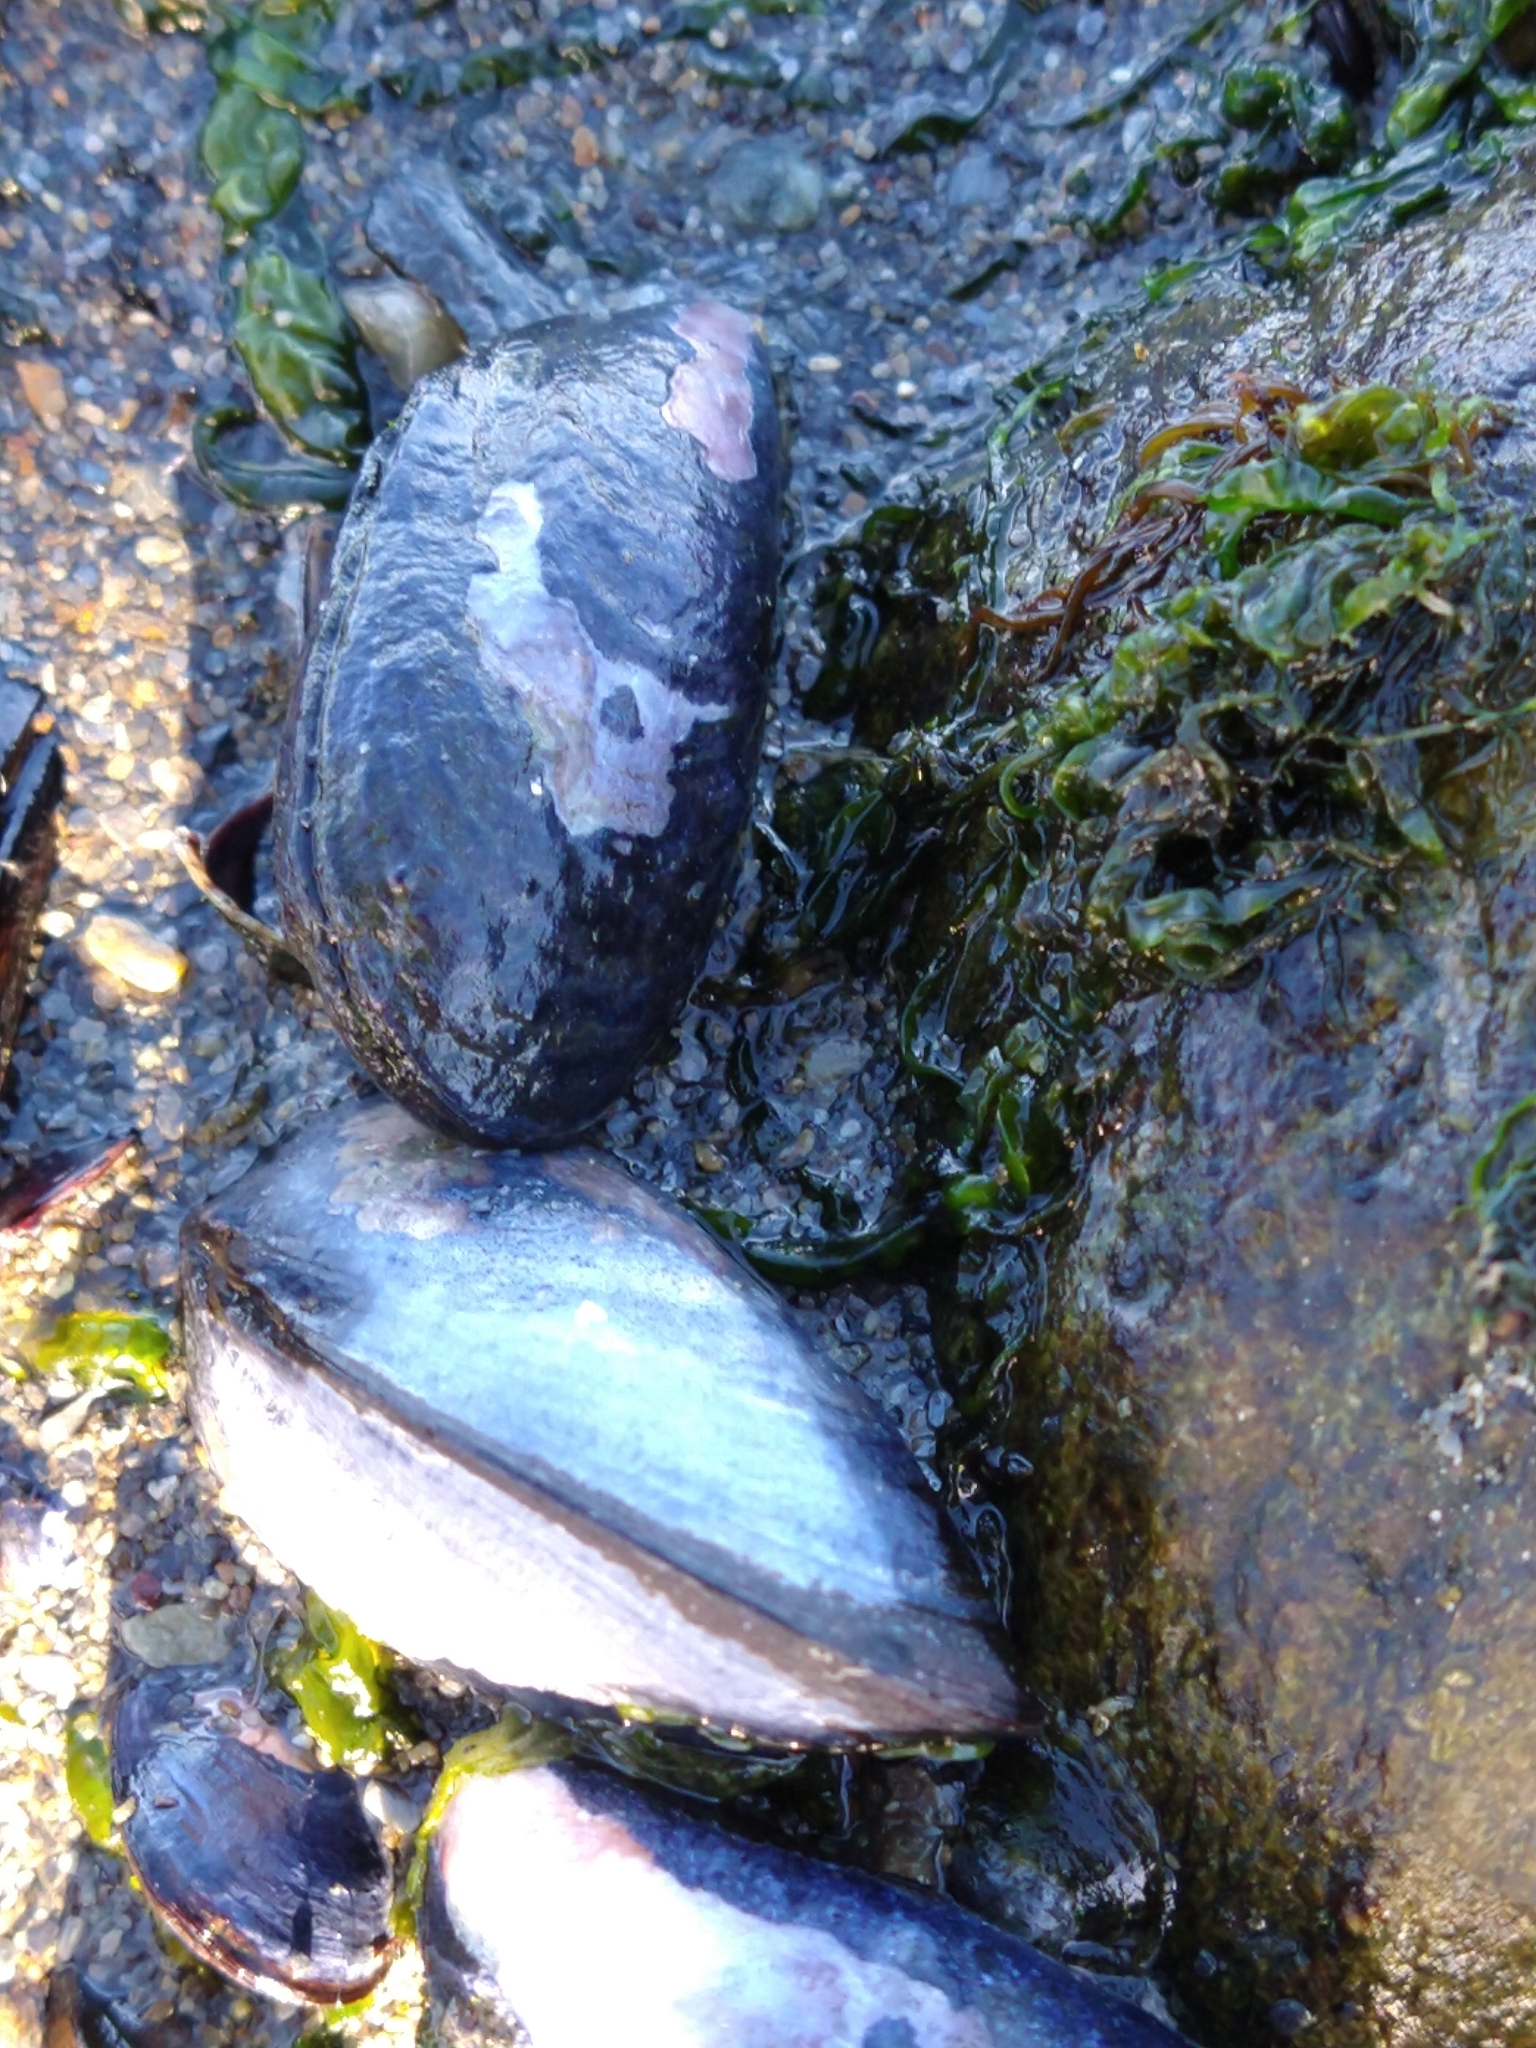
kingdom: Animalia
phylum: Mollusca
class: Bivalvia
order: Mytilida
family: Mytilidae
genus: Mytilus
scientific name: Mytilus chilensis
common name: Chilean mussel
